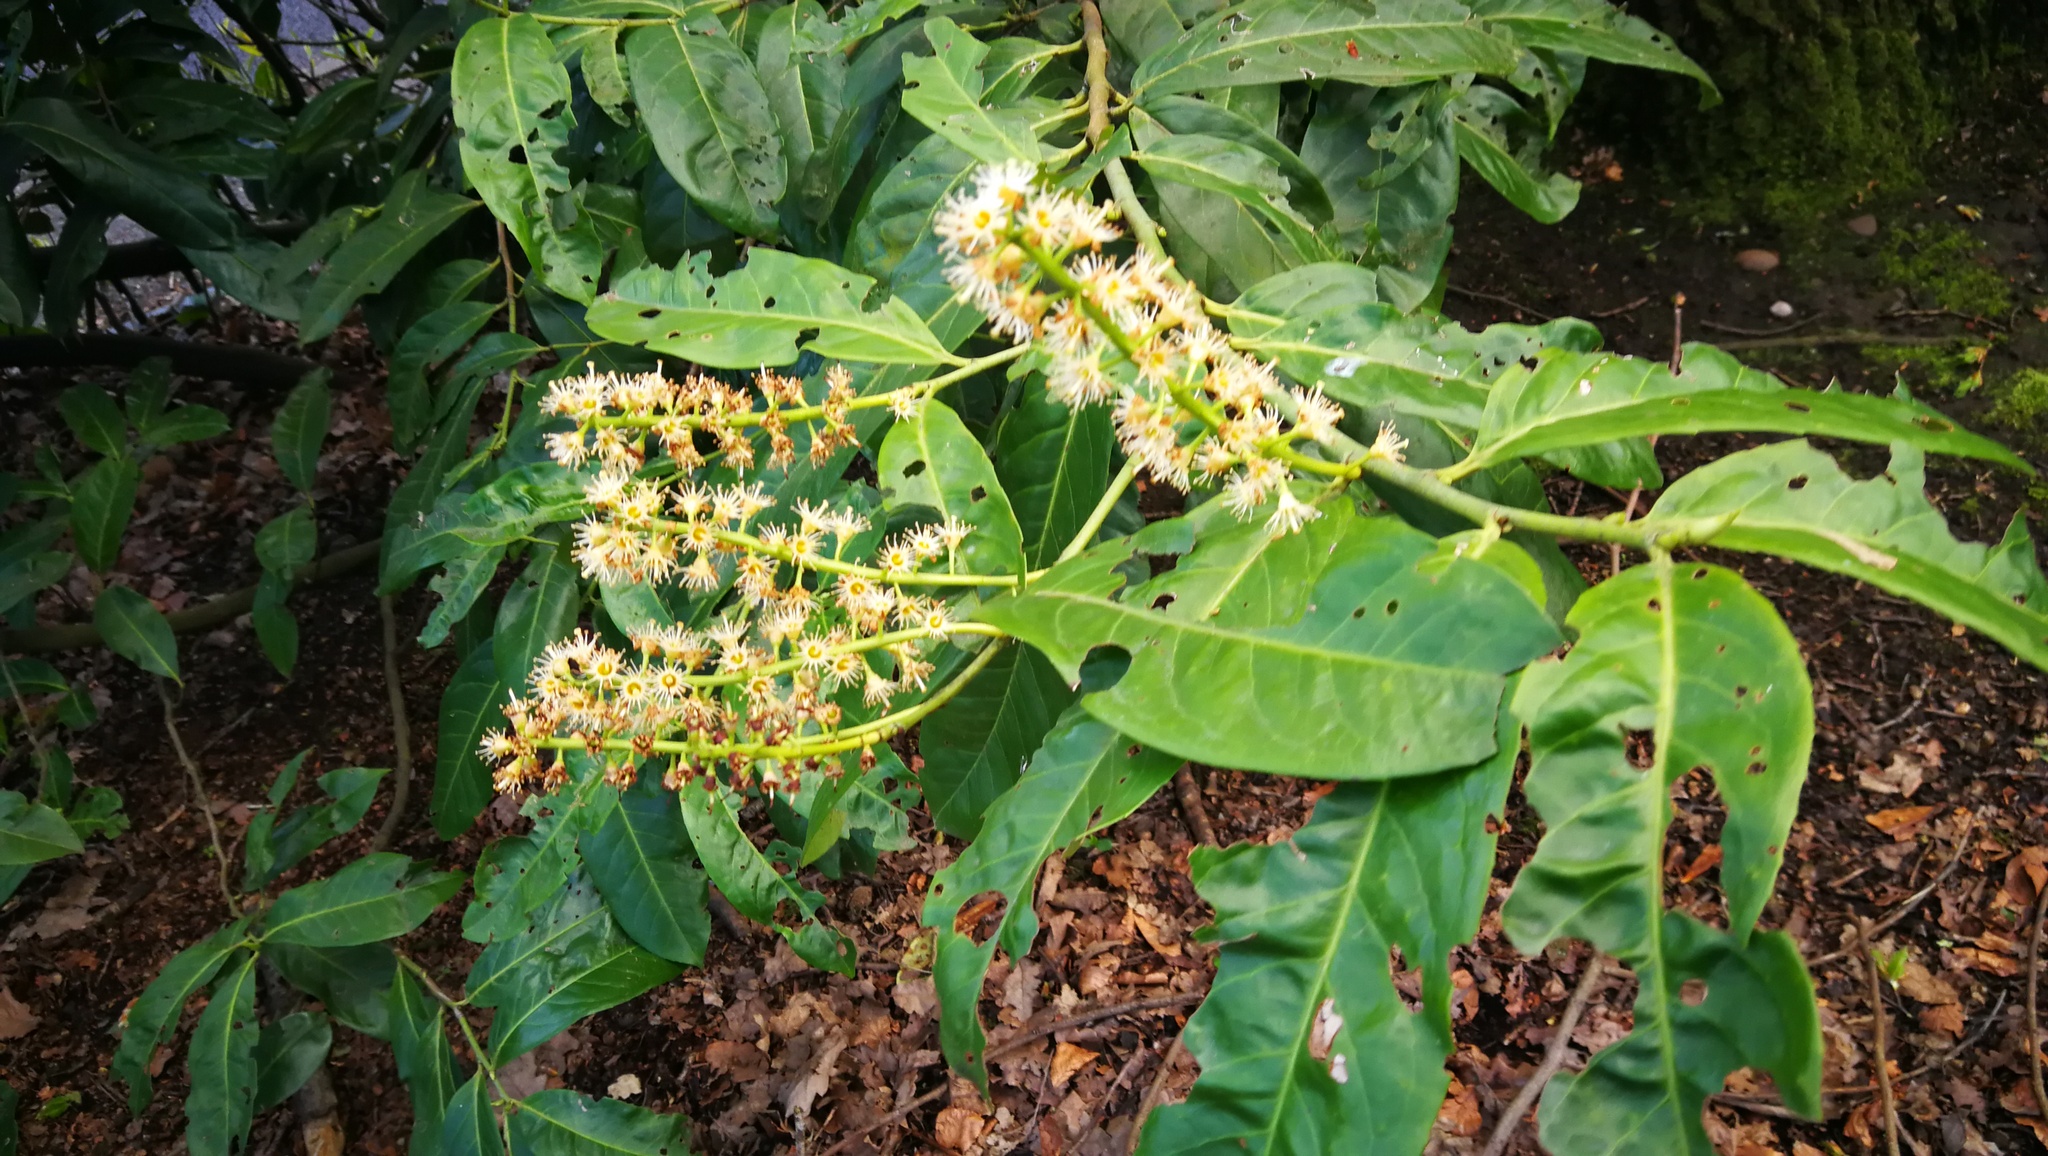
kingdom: Plantae
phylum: Tracheophyta
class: Magnoliopsida
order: Rosales
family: Rosaceae
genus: Prunus
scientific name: Prunus laurocerasus
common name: Cherry laurel
